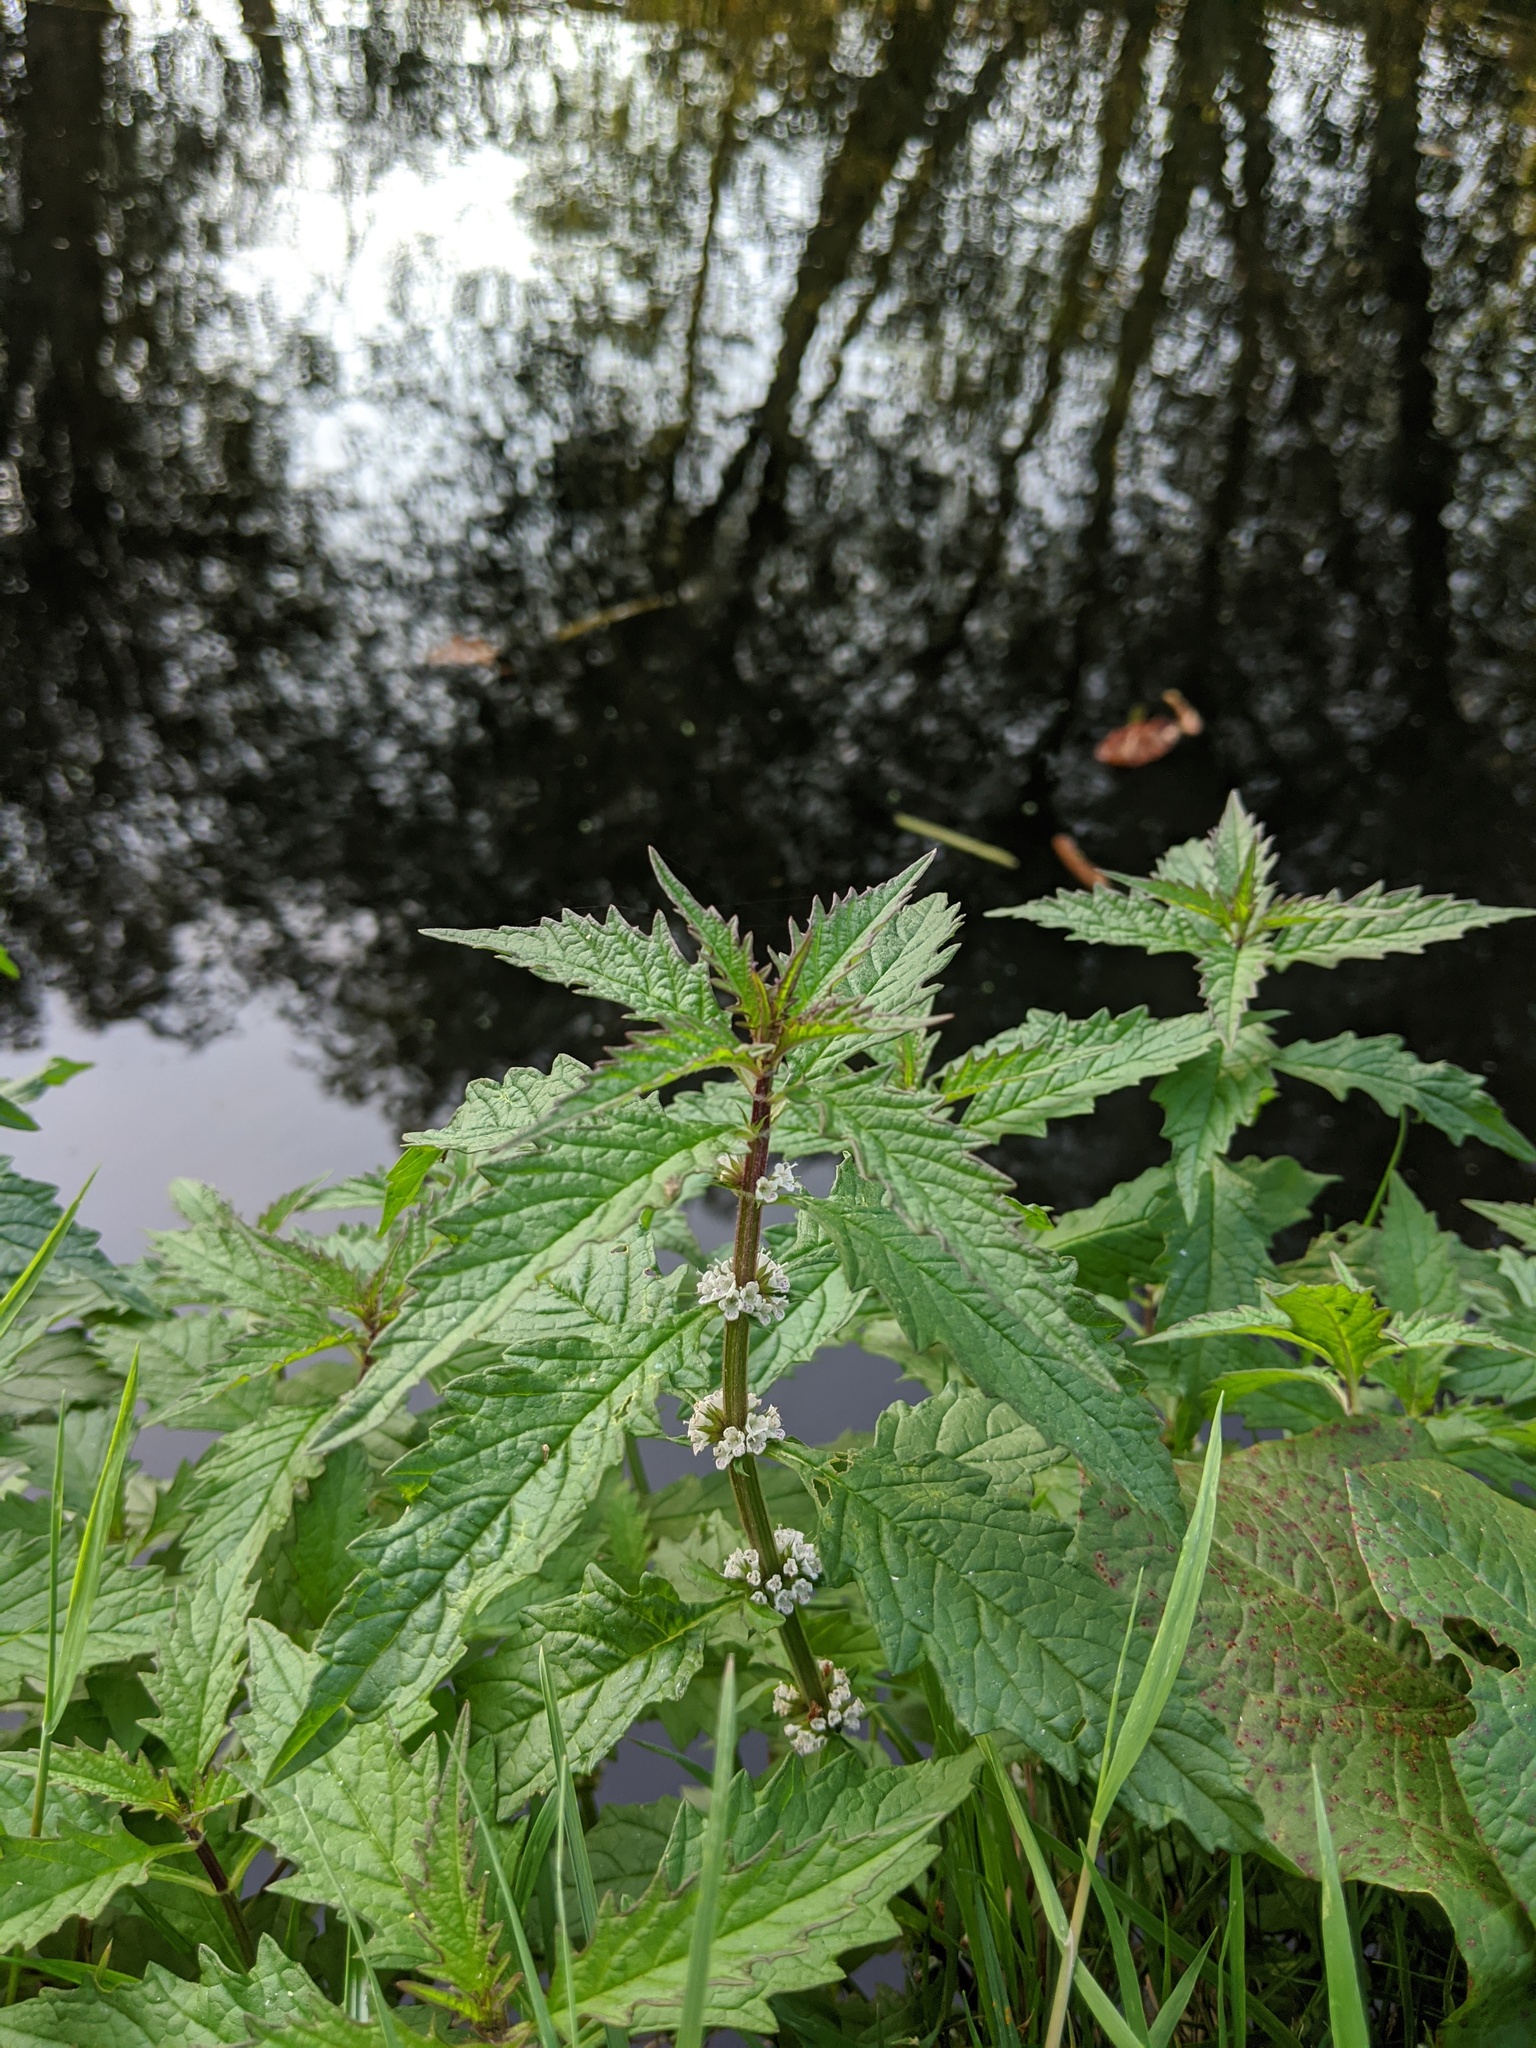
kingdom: Plantae
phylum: Tracheophyta
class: Magnoliopsida
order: Lamiales
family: Lamiaceae
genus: Lycopus
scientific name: Lycopus europaeus
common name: European bugleweed
